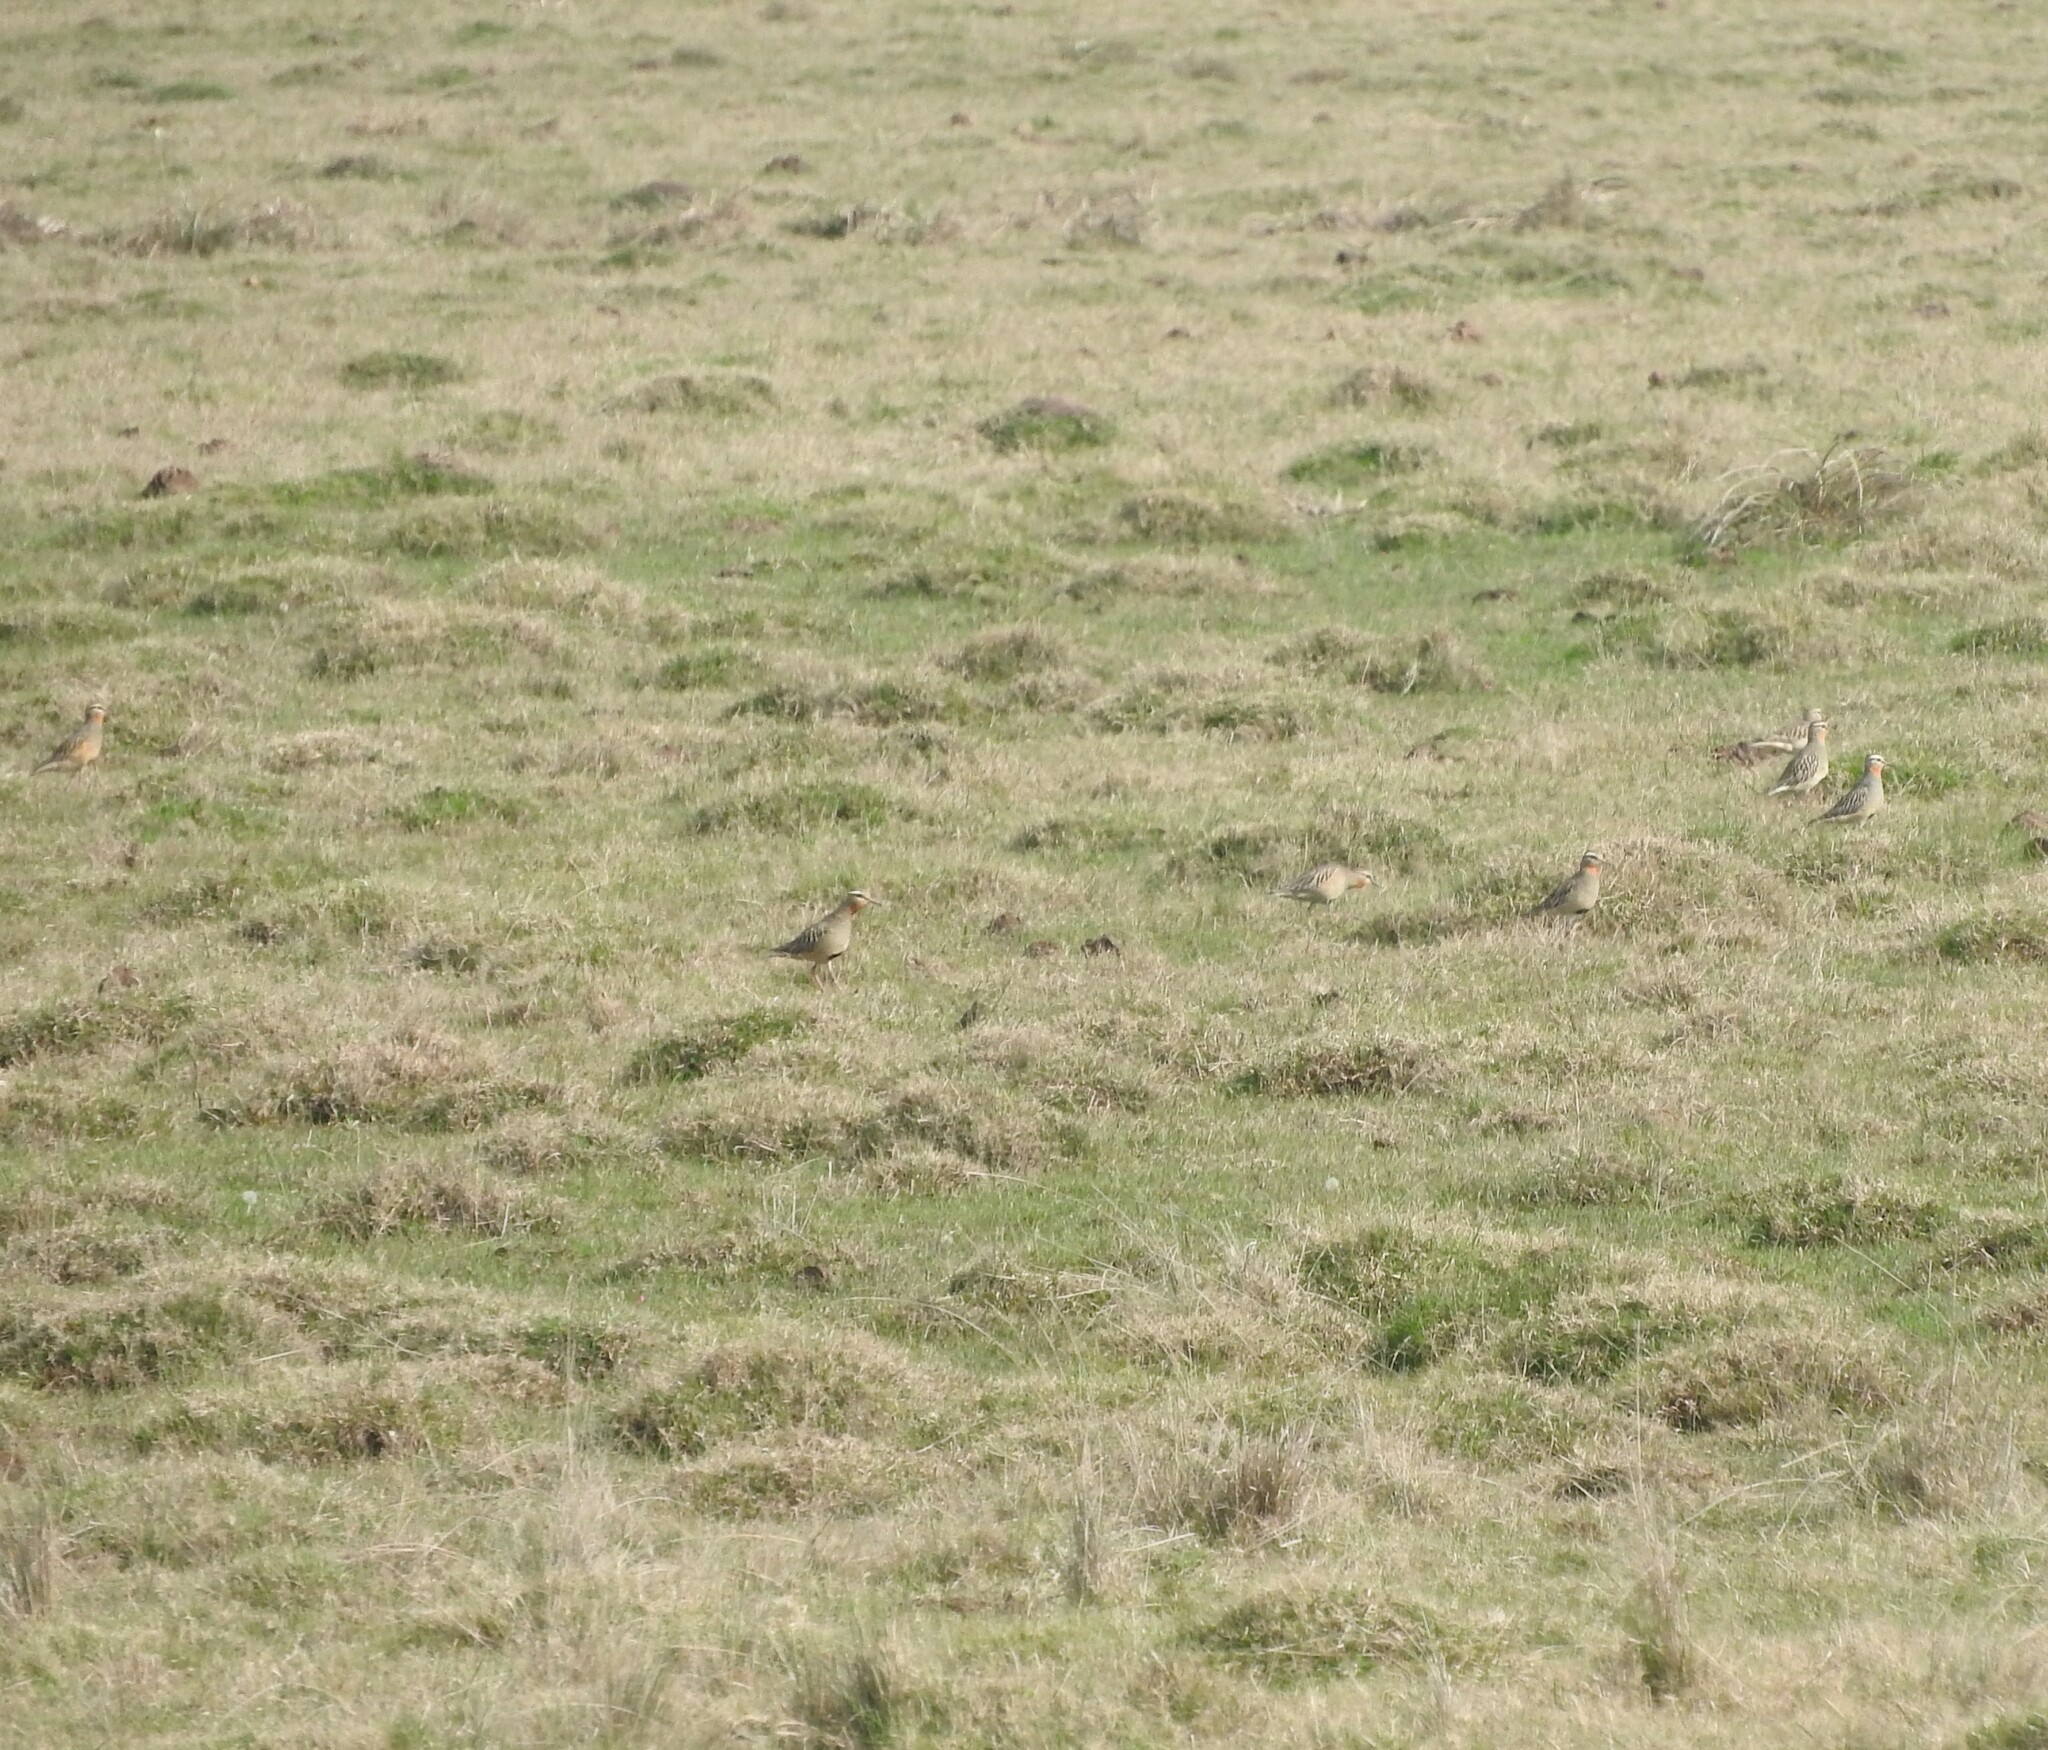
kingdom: Animalia
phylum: Chordata
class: Aves
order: Charadriiformes
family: Charadriidae
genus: Oreopholus
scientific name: Oreopholus ruficollis
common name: Tawny-throated dotterel
